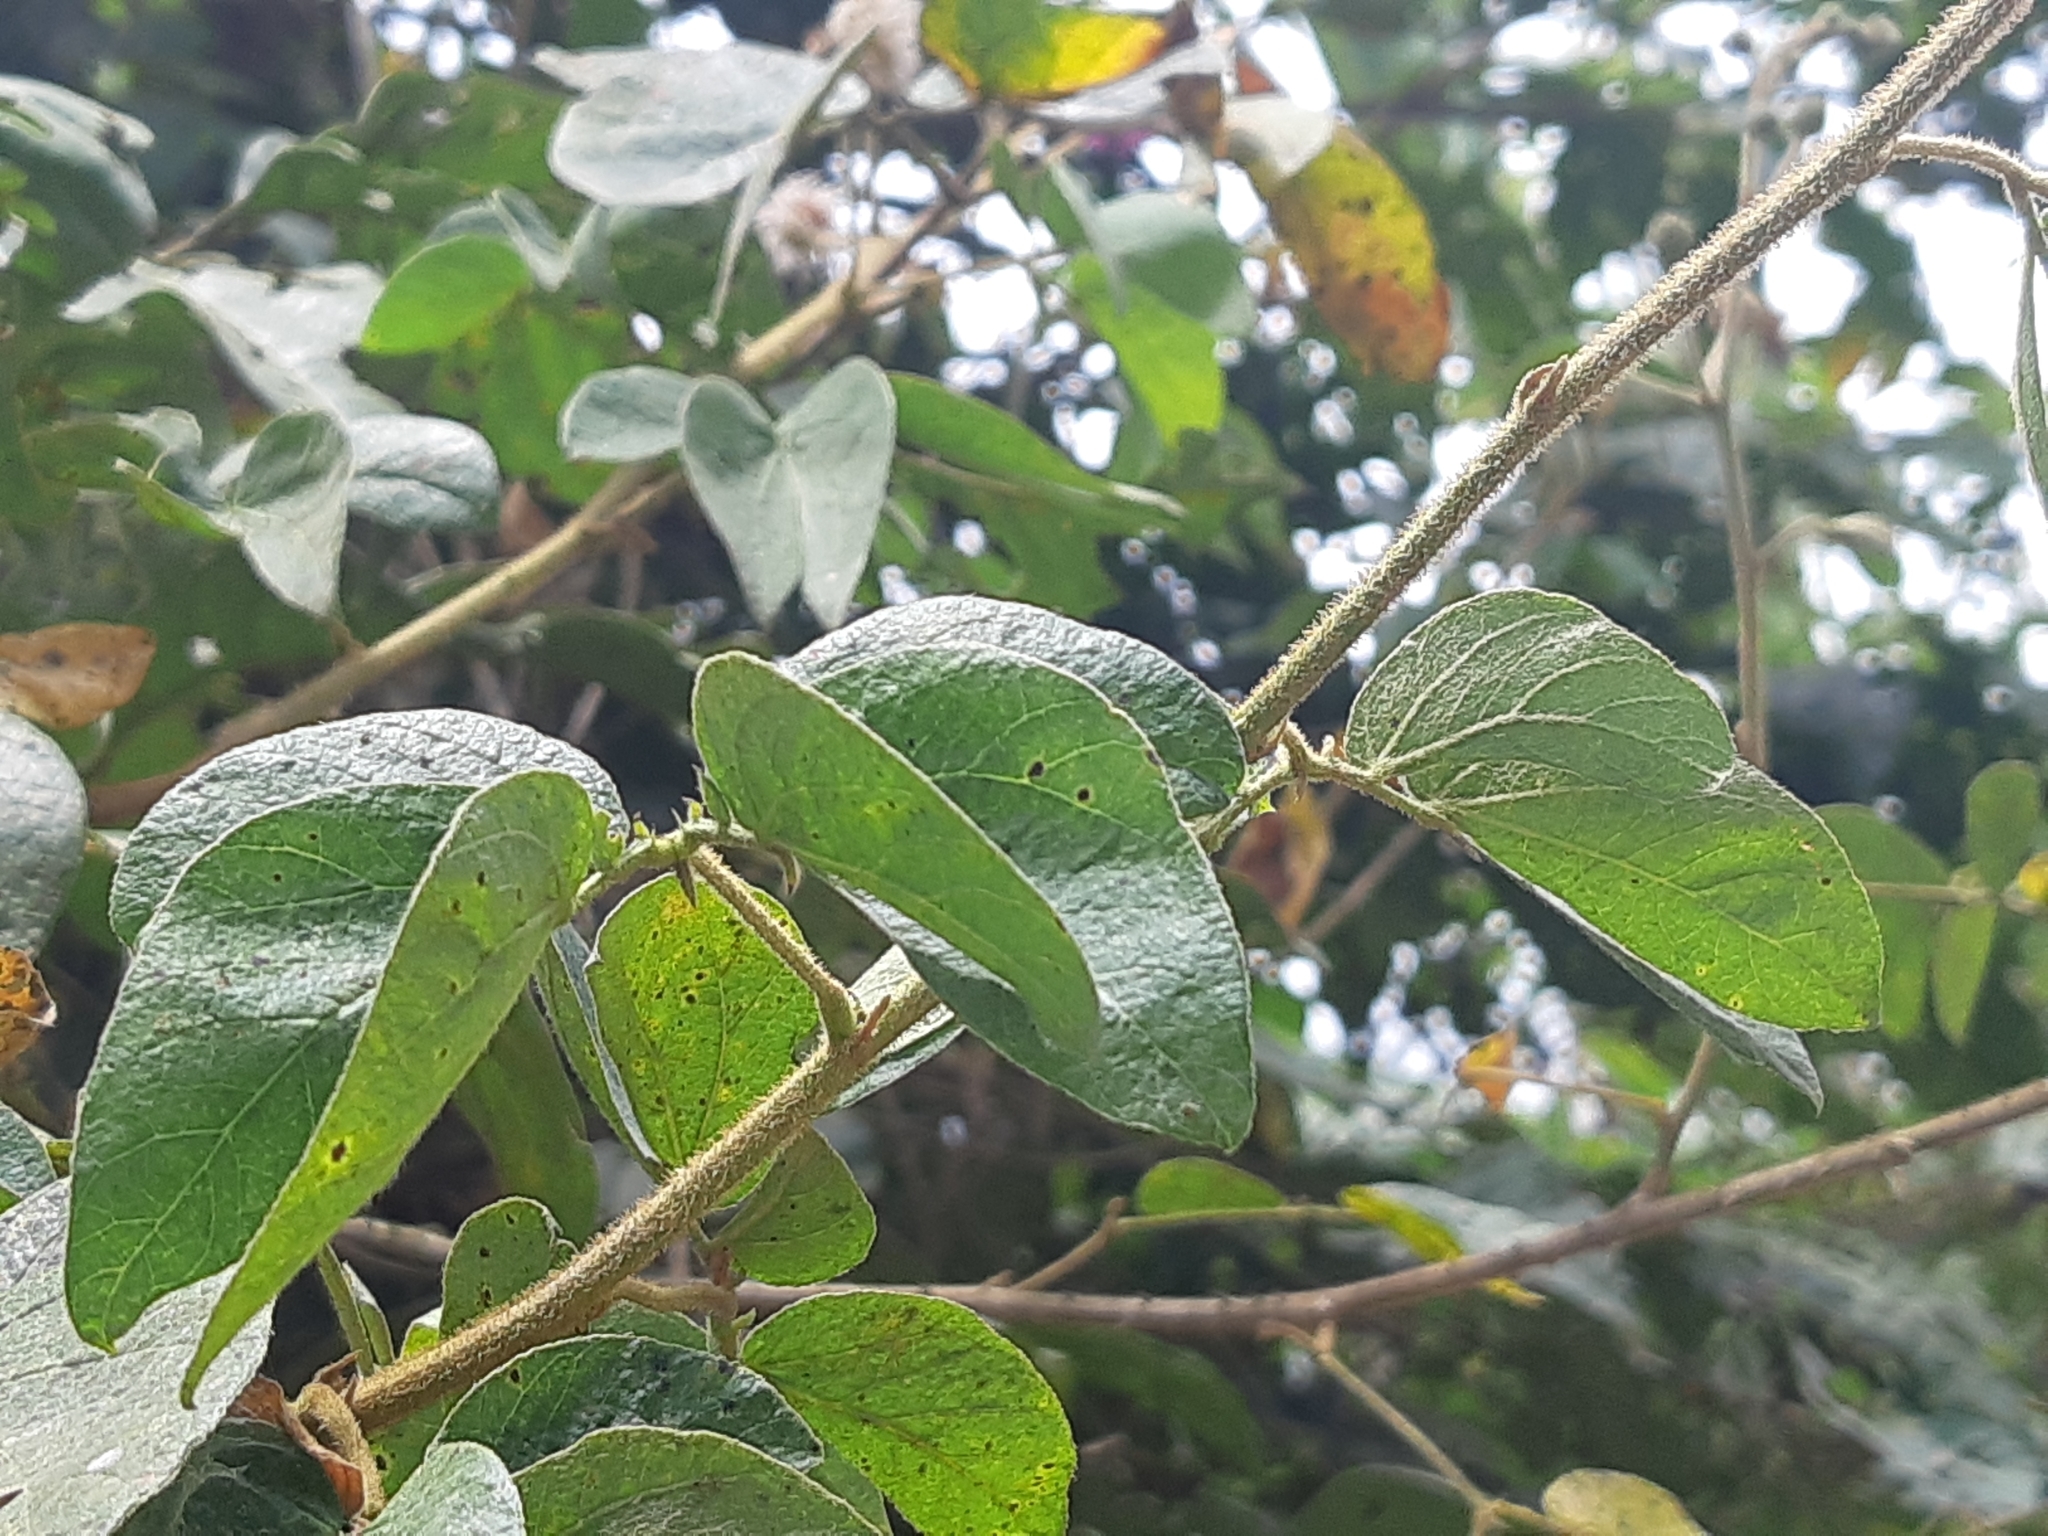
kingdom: Plantae
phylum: Tracheophyta
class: Magnoliopsida
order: Fabales
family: Fabaceae
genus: Mimosa
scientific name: Mimosa albida
